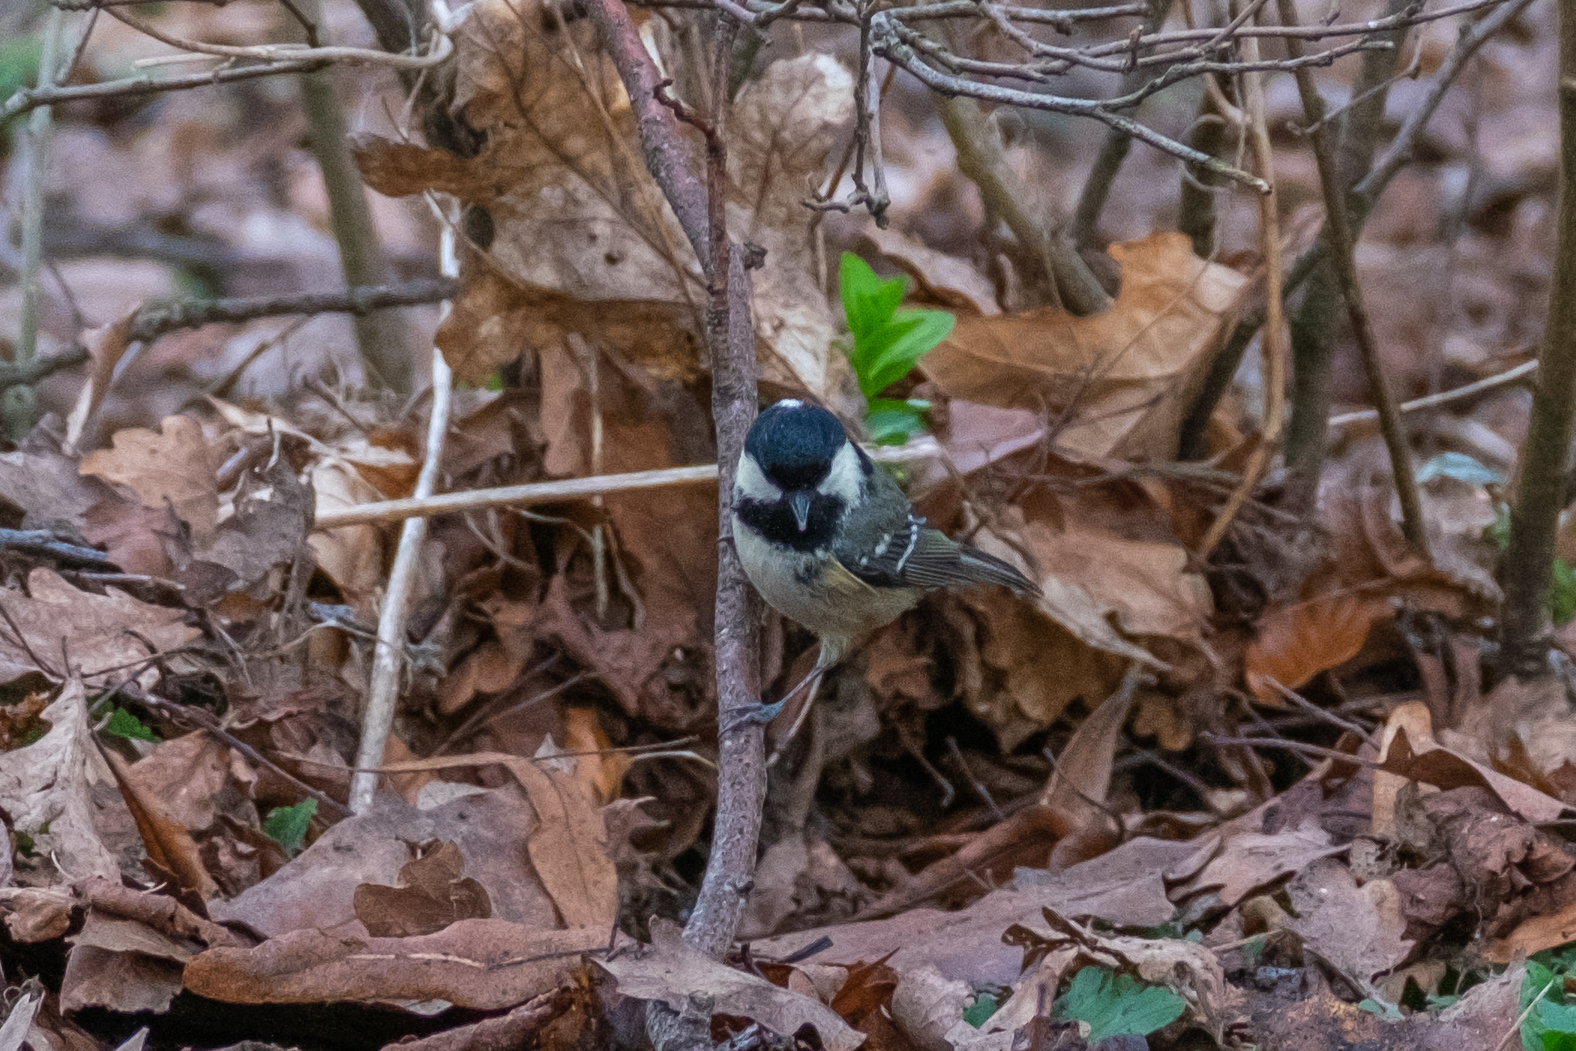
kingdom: Animalia
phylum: Chordata
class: Aves
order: Passeriformes
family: Paridae
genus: Periparus
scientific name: Periparus ater
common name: Coal tit
